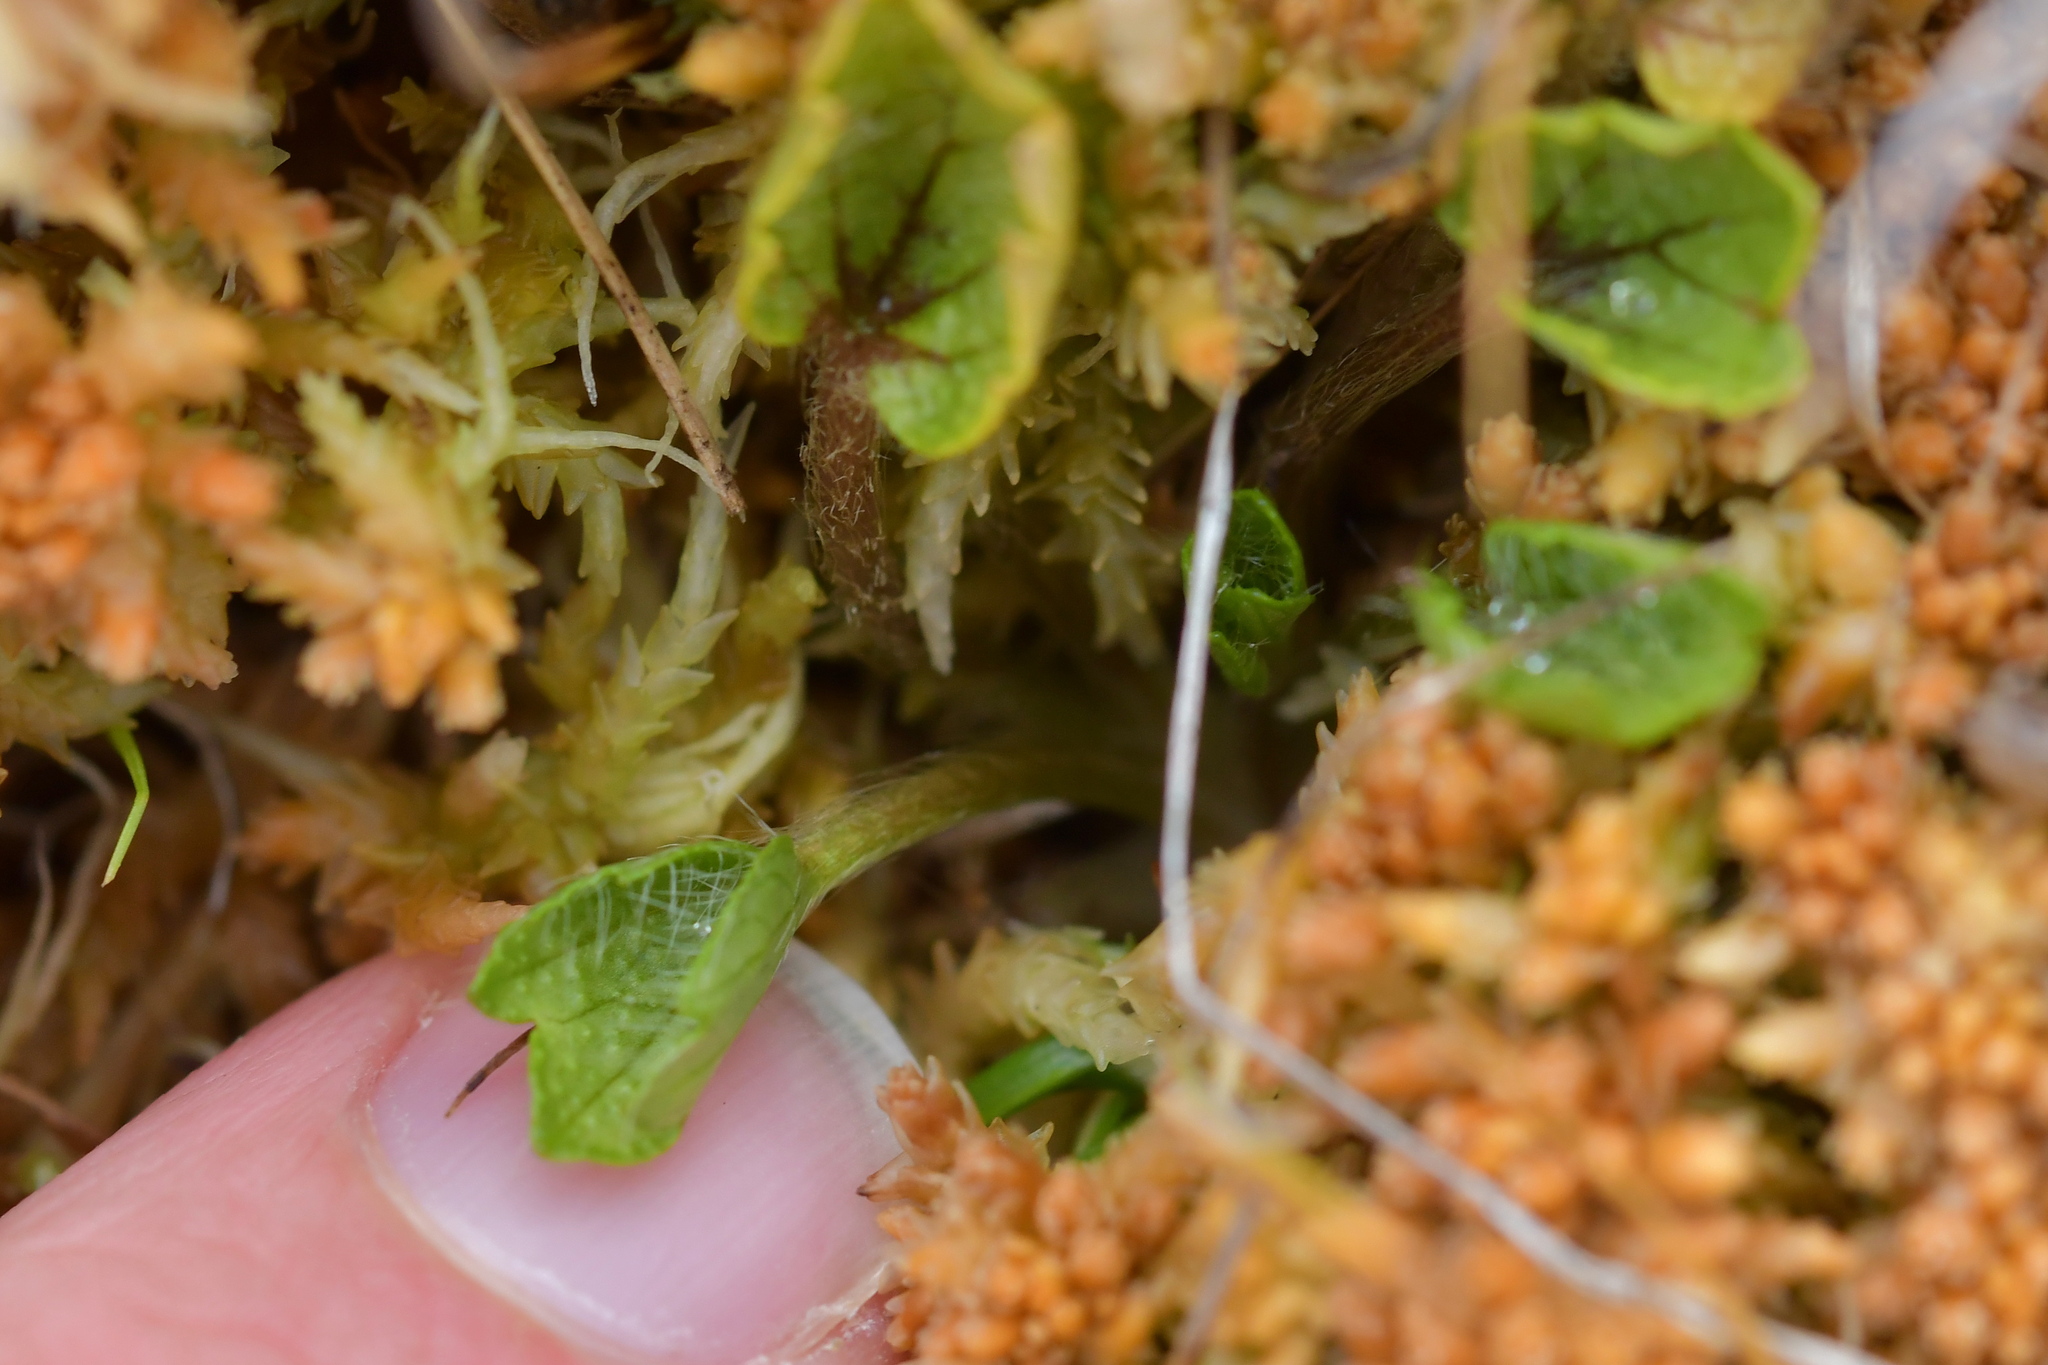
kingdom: Plantae
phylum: Tracheophyta
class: Magnoliopsida
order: Ranunculales
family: Ranunculaceae
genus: Ranunculus
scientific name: Ranunculus maculatus
